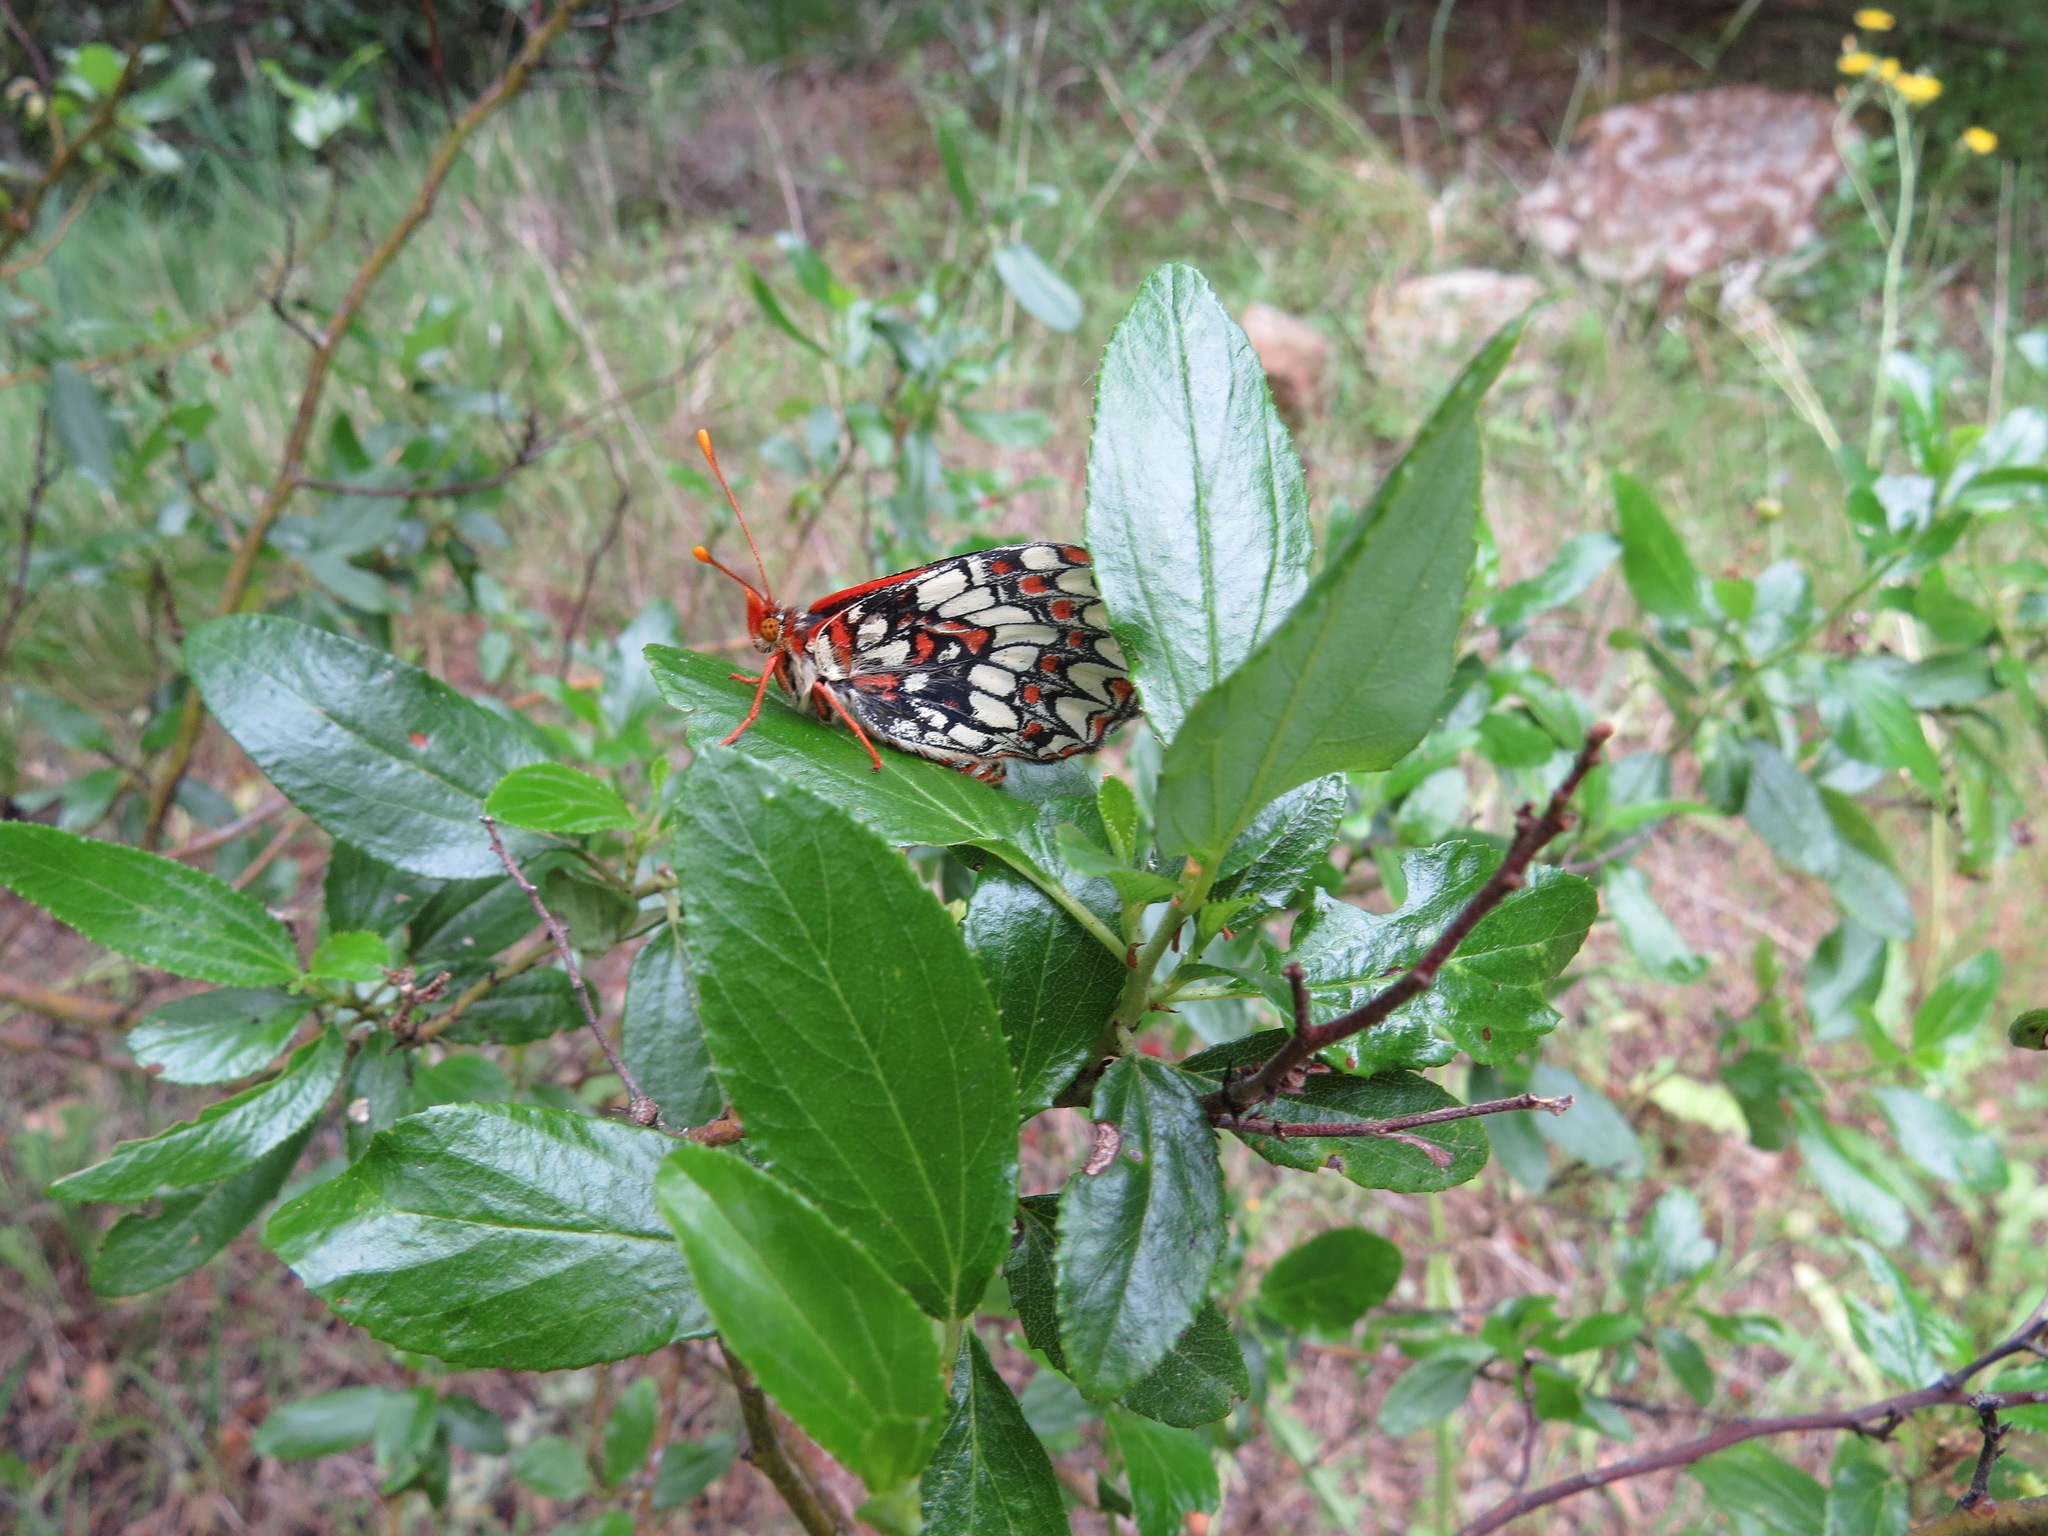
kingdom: Animalia
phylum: Arthropoda
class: Insecta
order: Lepidoptera
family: Nymphalidae
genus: Occidryas
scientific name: Occidryas chalcedona
